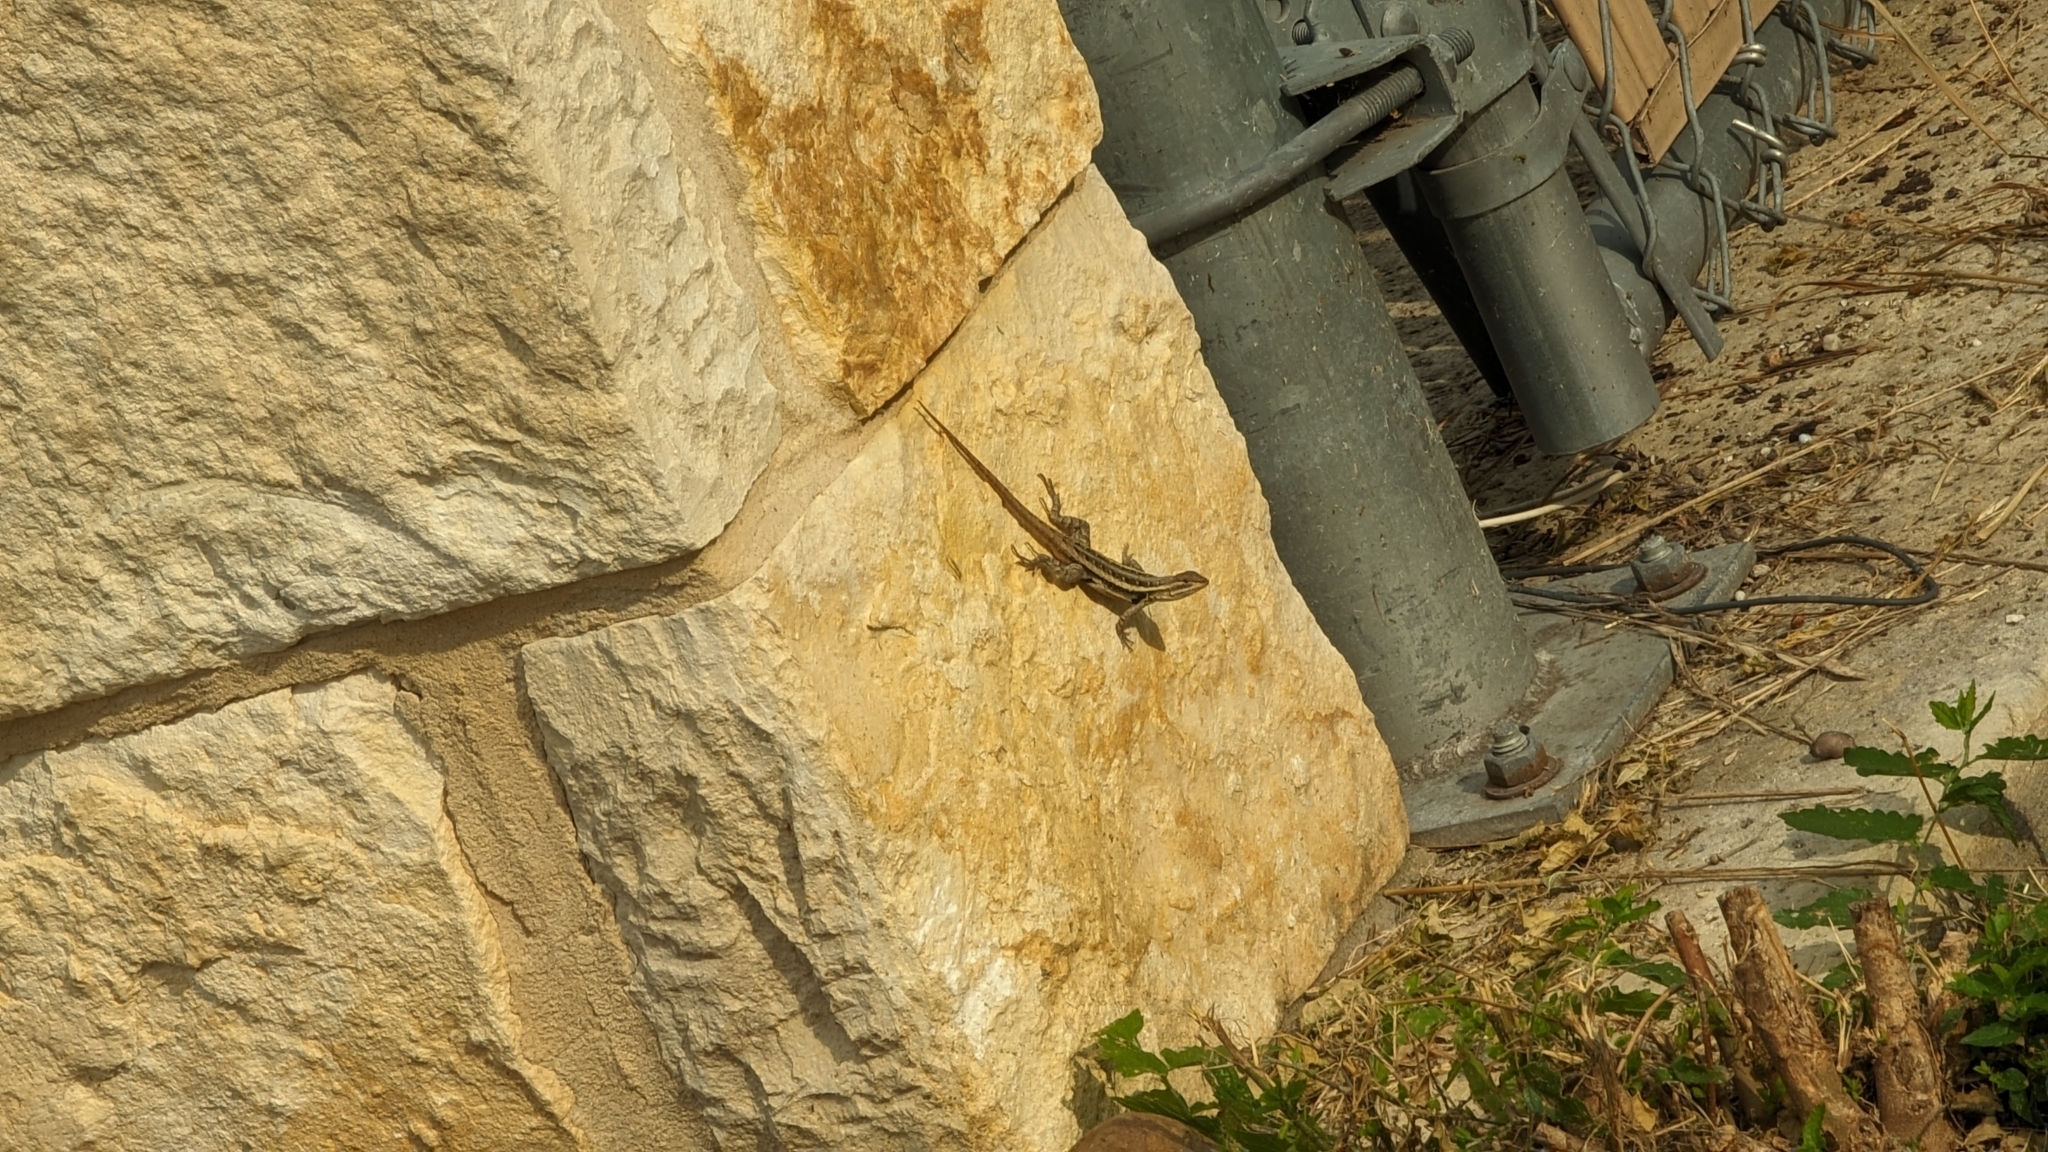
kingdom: Animalia
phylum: Chordata
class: Squamata
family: Phrynosomatidae
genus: Sceloporus
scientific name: Sceloporus variabilis
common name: Rosebelly lizard
